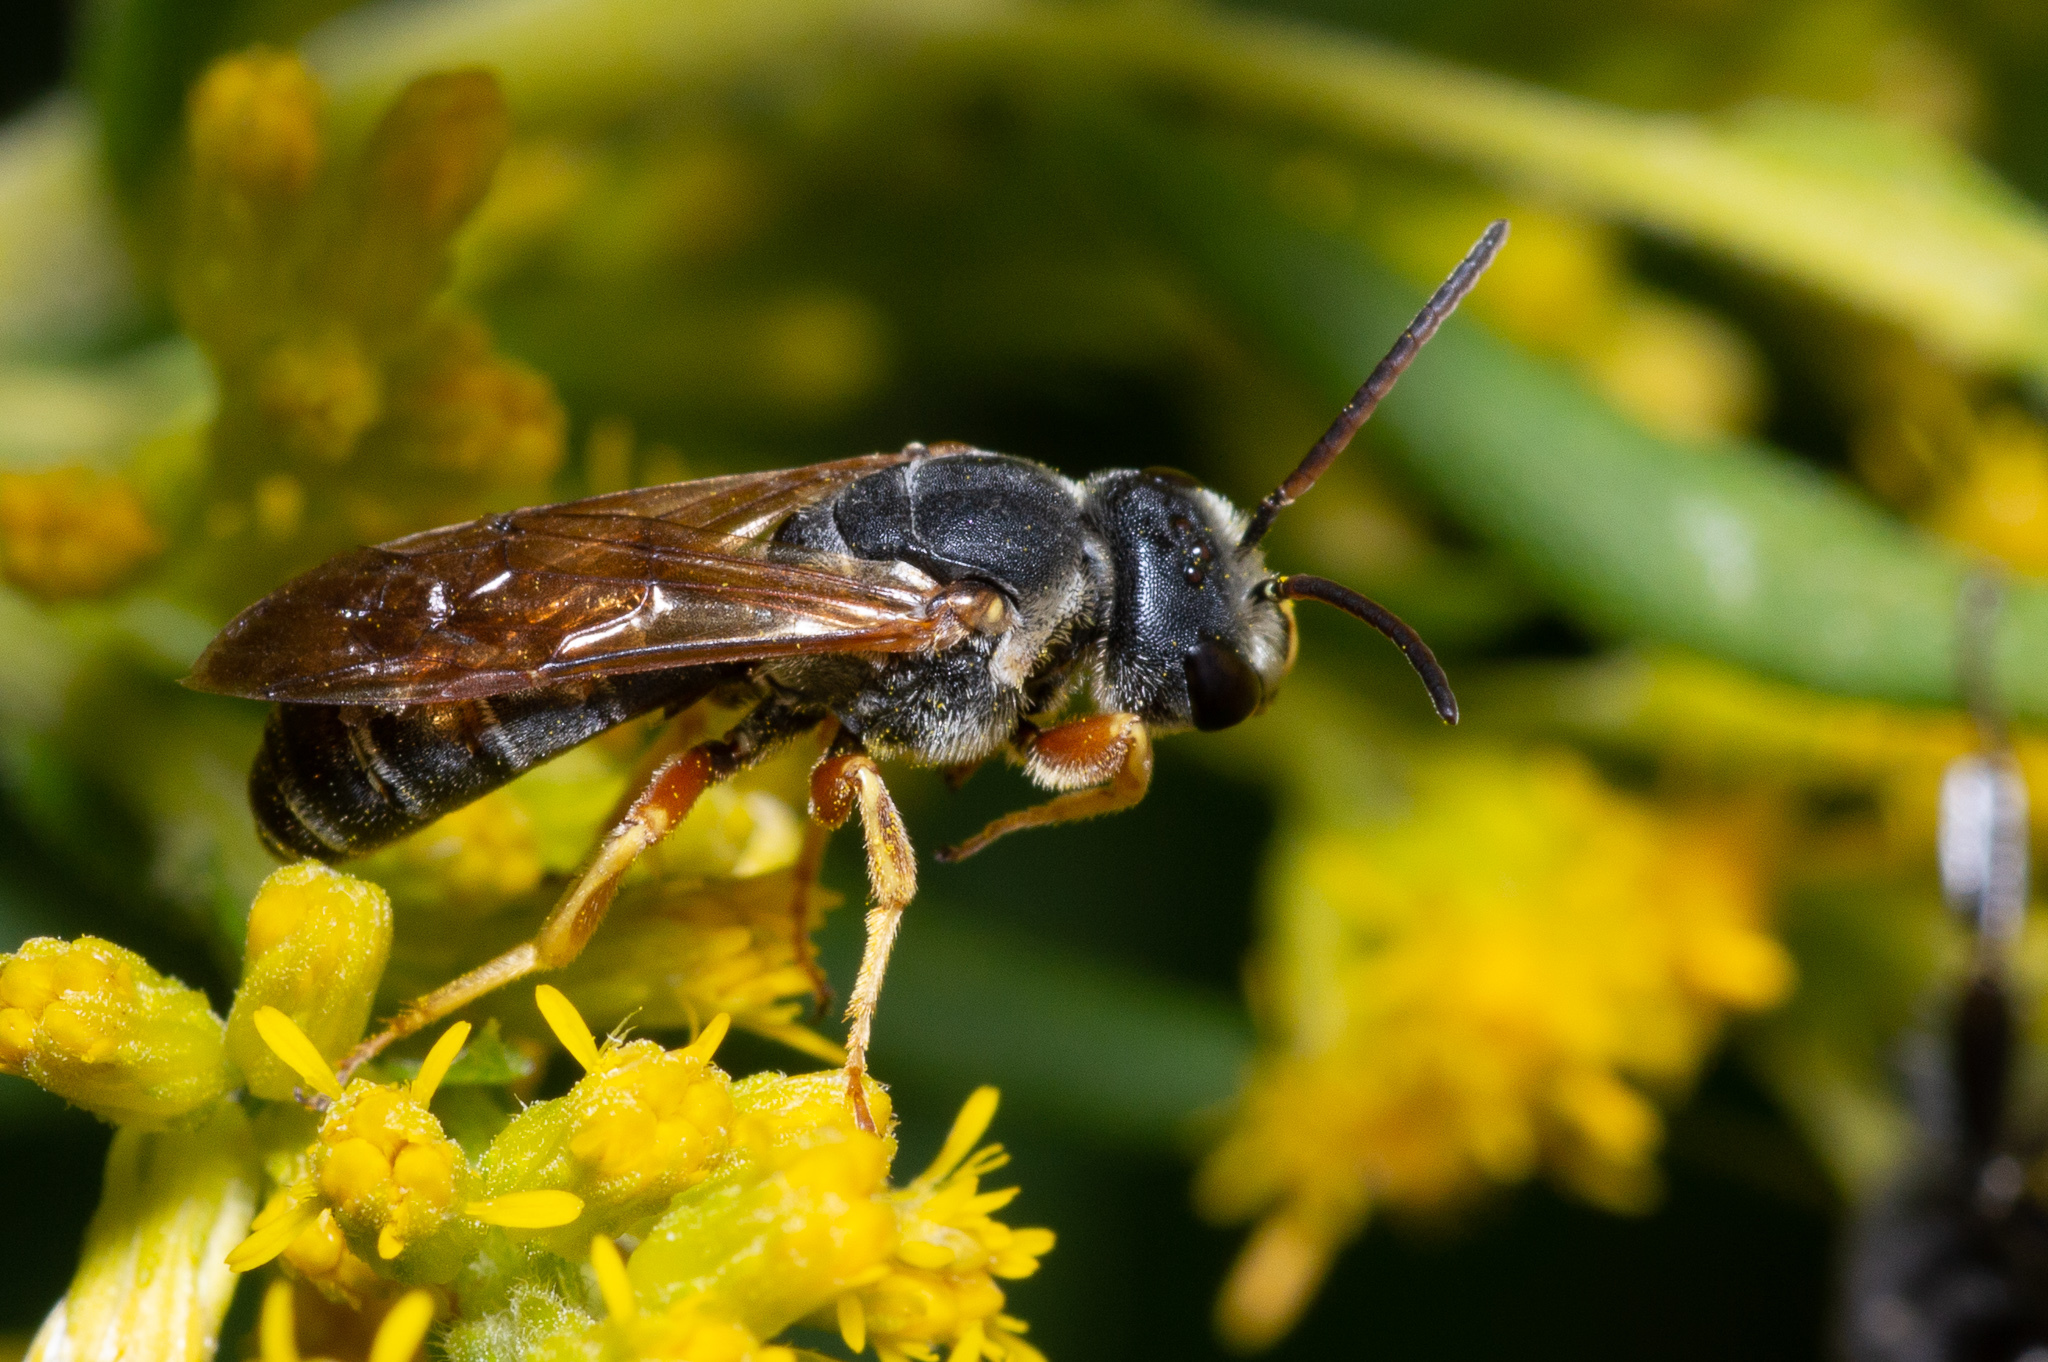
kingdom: Animalia
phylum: Arthropoda
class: Insecta
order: Hymenoptera
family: Halictidae
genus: Halictus
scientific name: Halictus parallelus
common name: Parallel-striped sweat bee
